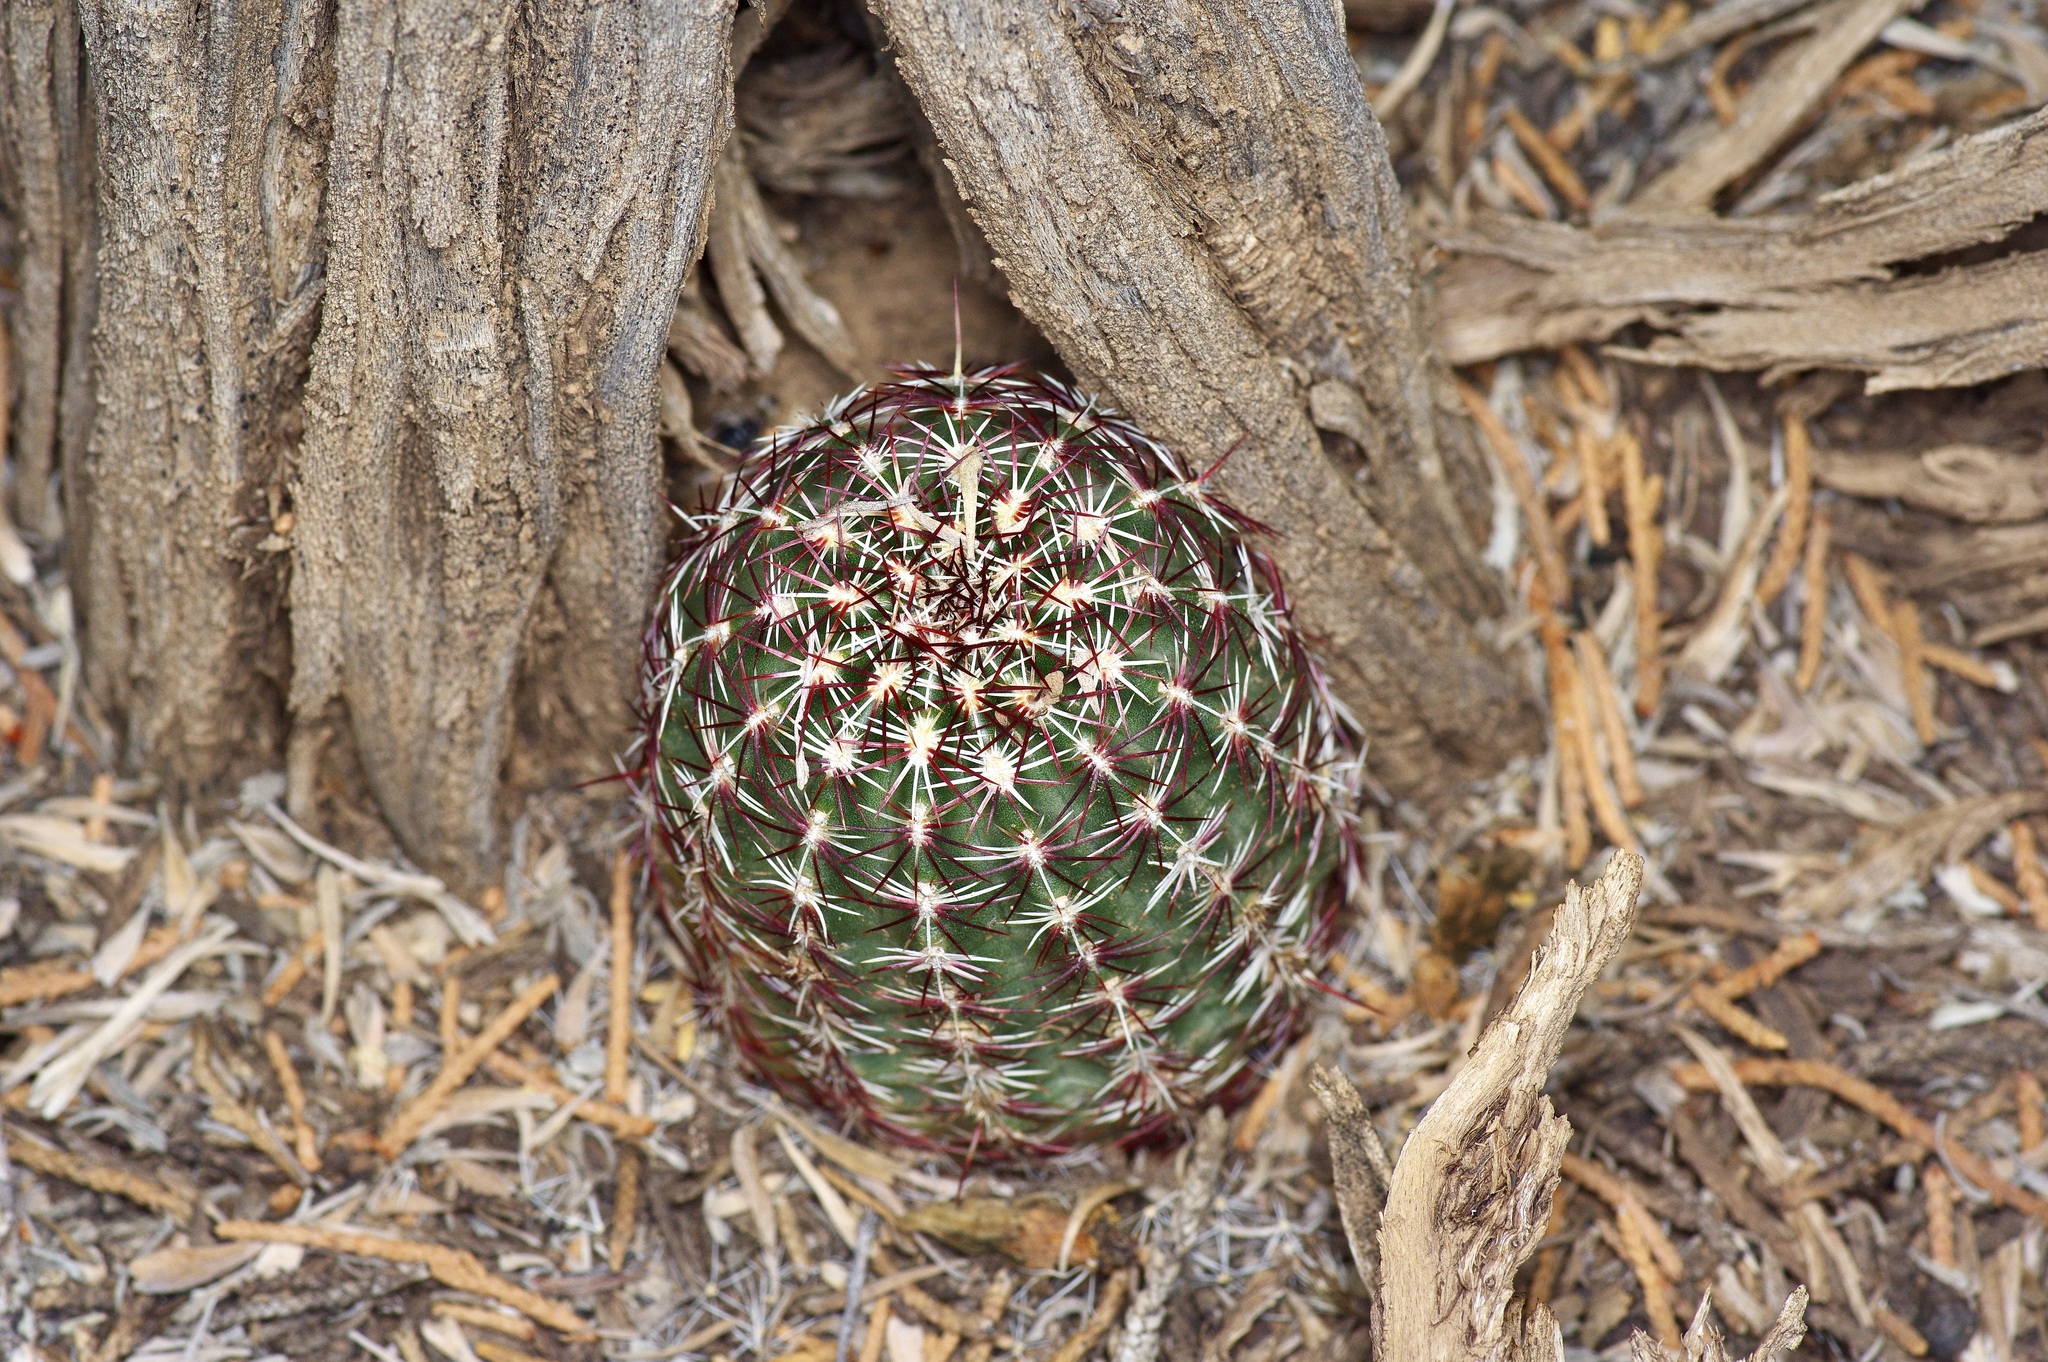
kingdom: Plantae
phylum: Tracheophyta
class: Magnoliopsida
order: Caryophyllales
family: Cactaceae
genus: Echinocereus
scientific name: Echinocereus viridiflorus
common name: Nylon hedgehog cactus
